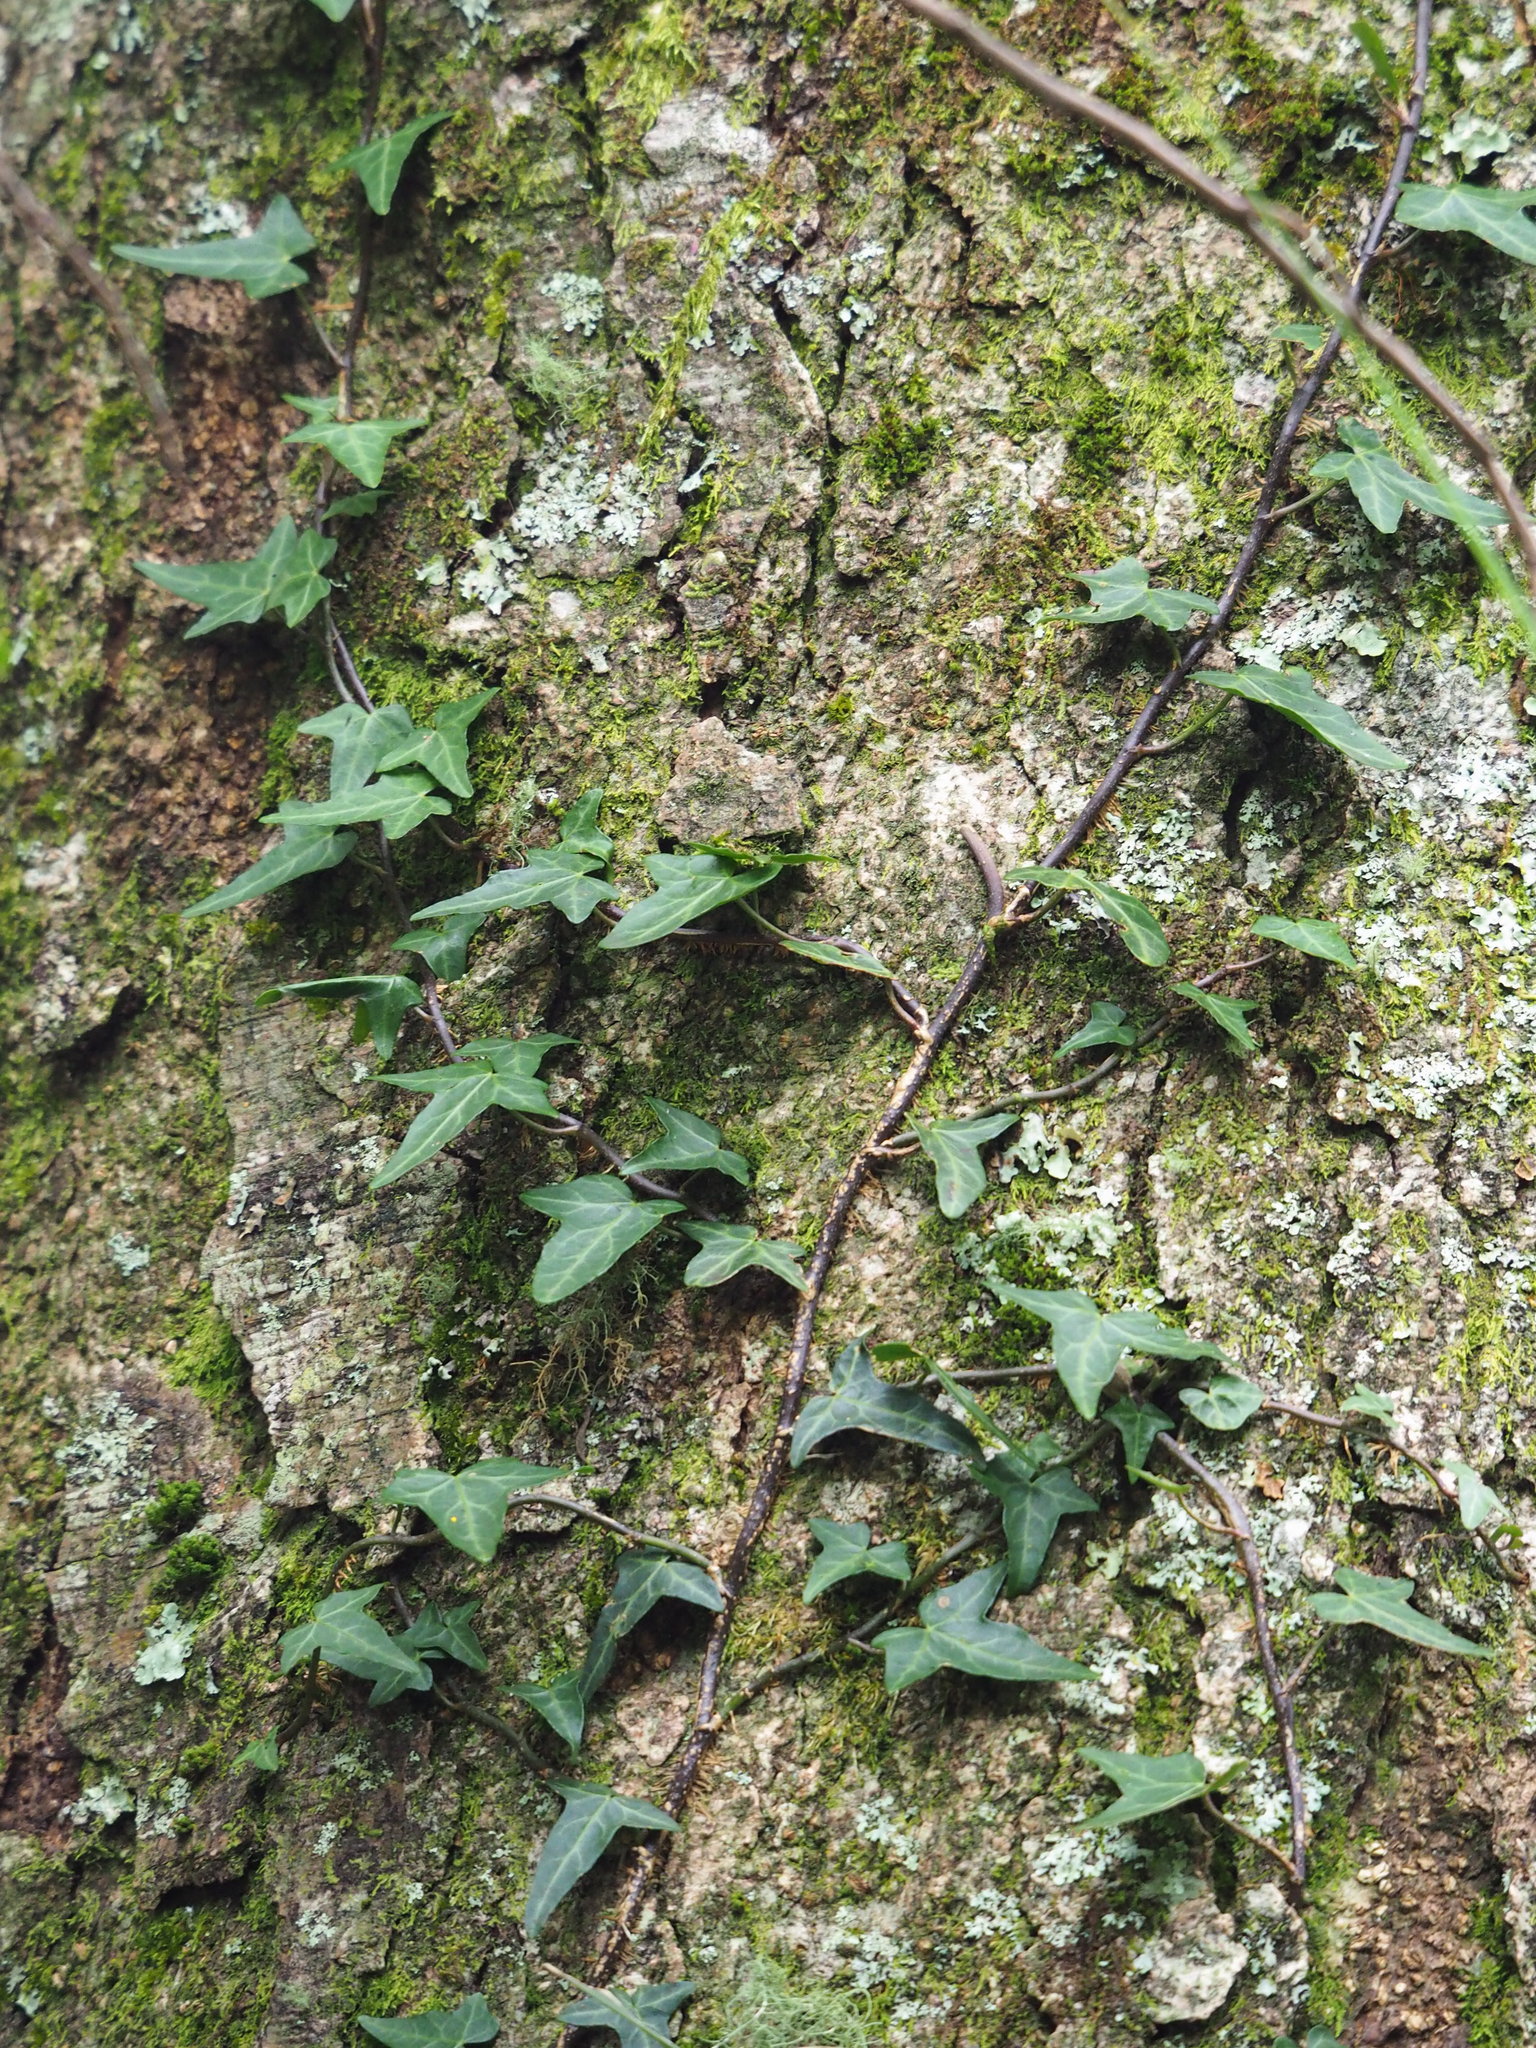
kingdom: Plantae
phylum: Tracheophyta
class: Magnoliopsida
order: Apiales
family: Araliaceae
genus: Hedera
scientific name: Hedera rhombea
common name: Japanese ivy
